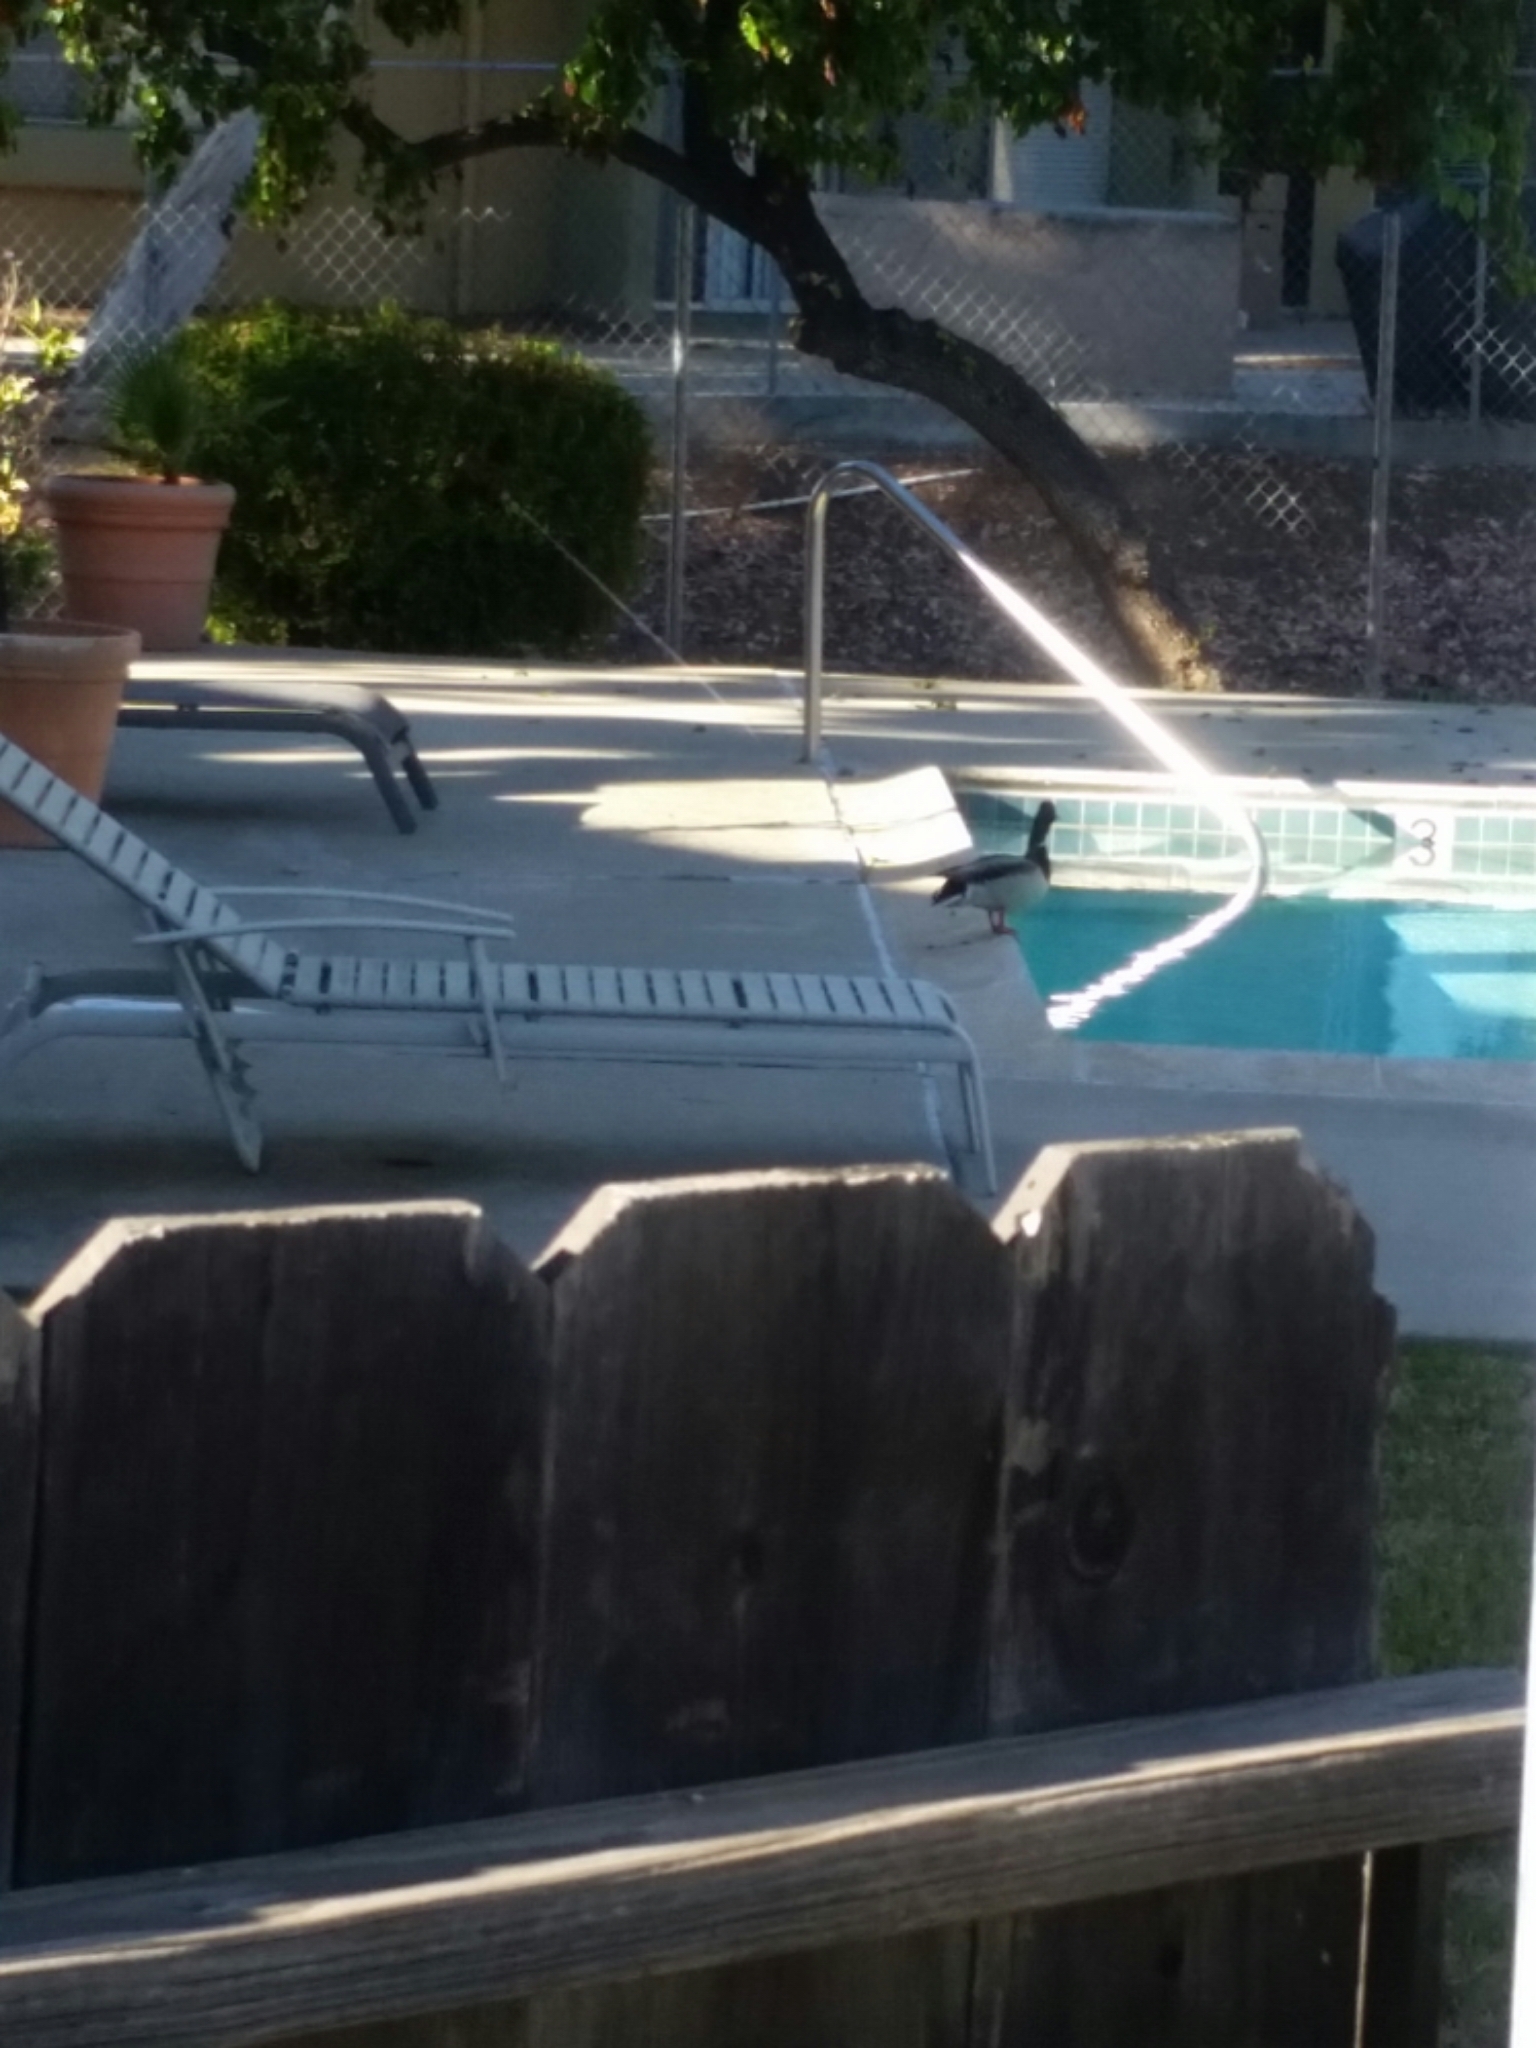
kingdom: Animalia
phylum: Chordata
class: Aves
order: Anseriformes
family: Anatidae
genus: Anas
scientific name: Anas platyrhynchos
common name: Mallard
